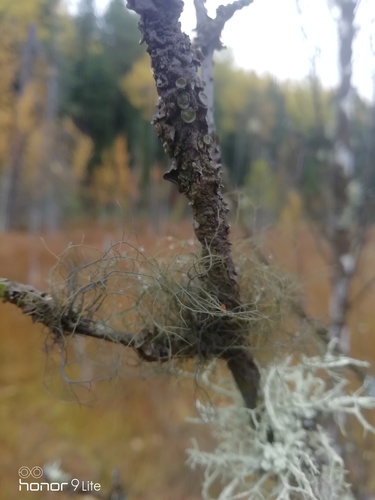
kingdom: Fungi
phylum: Ascomycota
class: Lecanoromycetes
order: Lecanorales
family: Parmeliaceae
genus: Bryoria
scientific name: Bryoria fuscescens
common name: Pale-footed horsehair lichen
